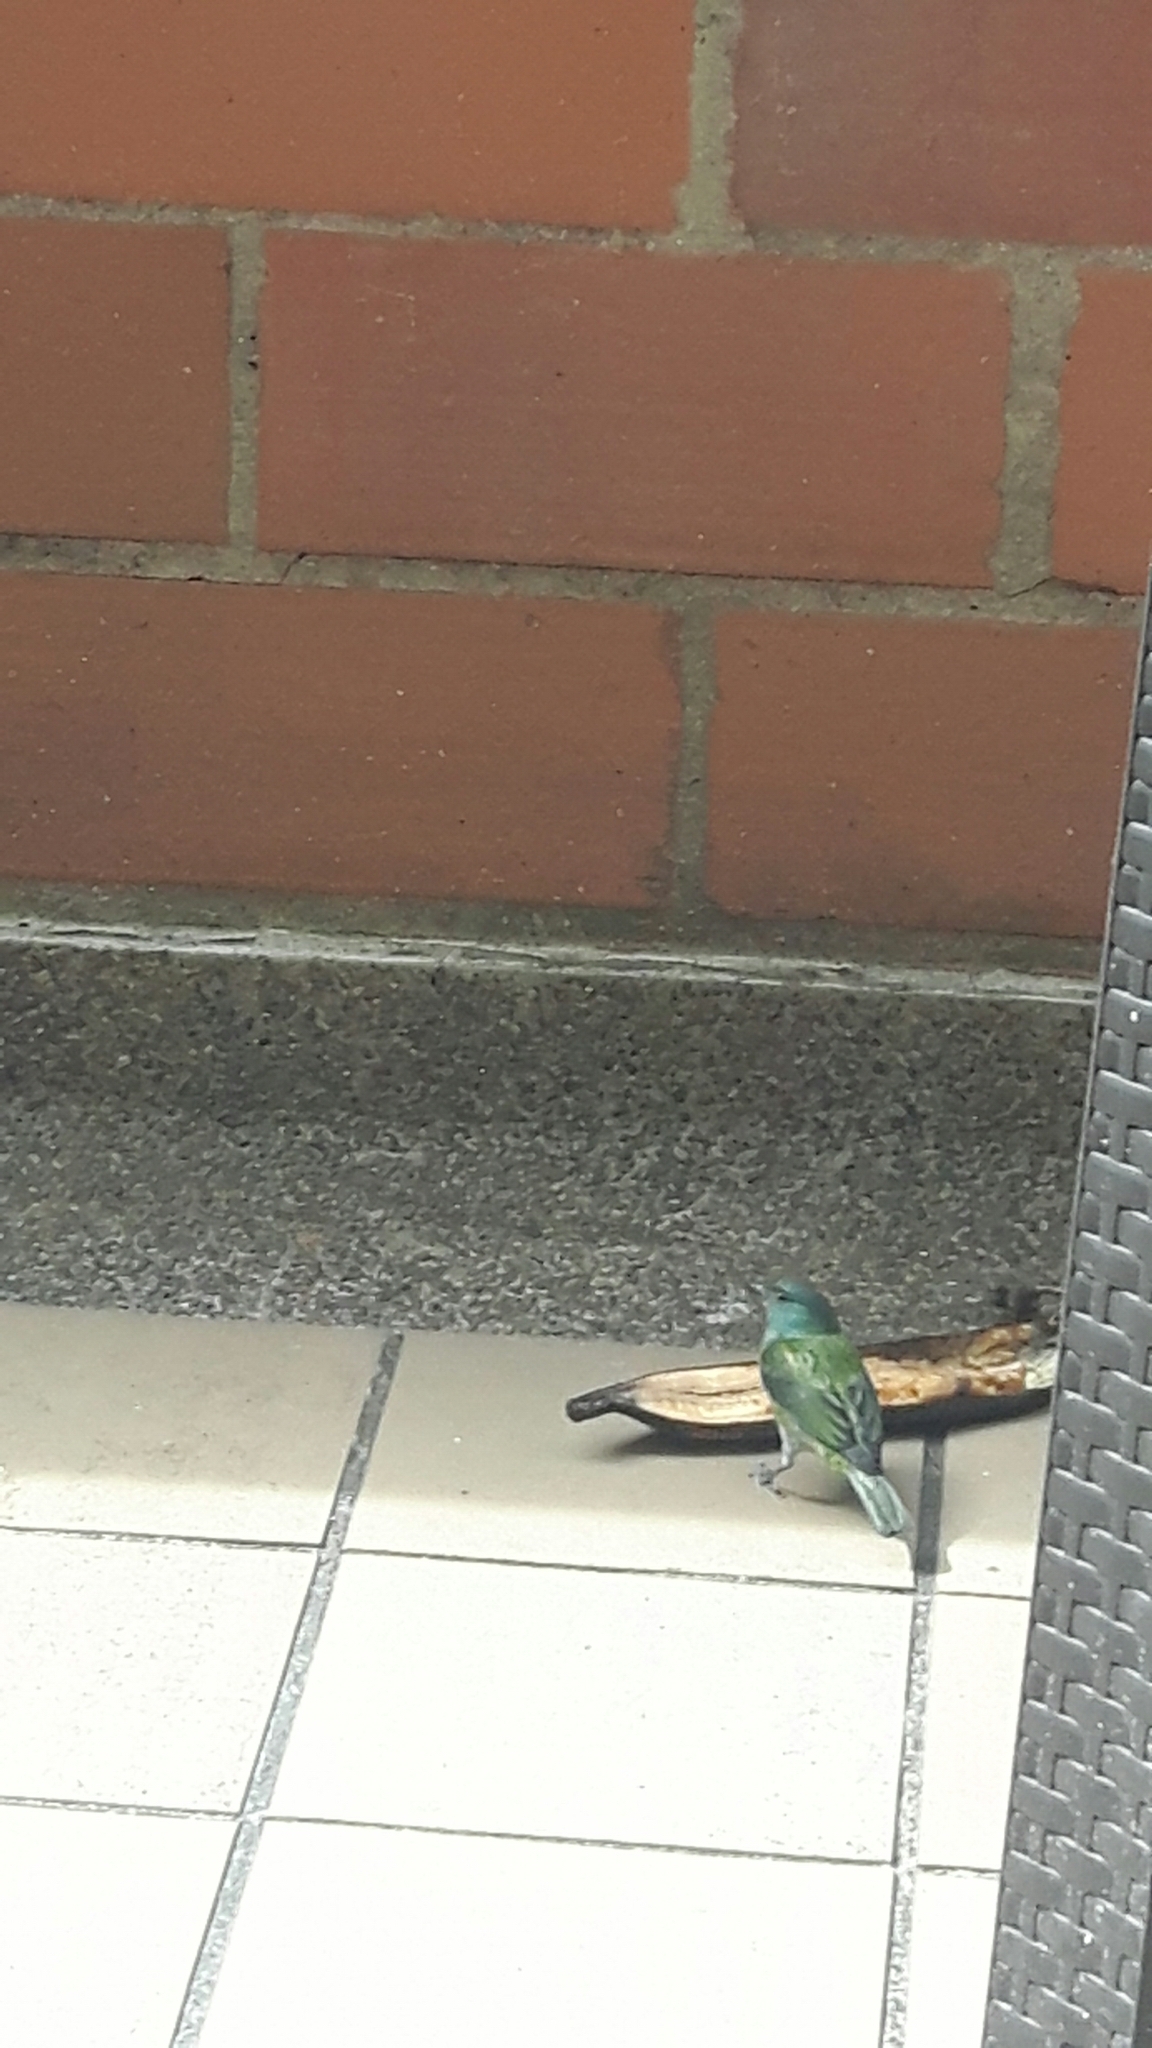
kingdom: Animalia
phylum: Chordata
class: Aves
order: Passeriformes
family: Thraupidae
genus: Stilpnia
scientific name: Stilpnia heinei
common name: Black-capped tanager
